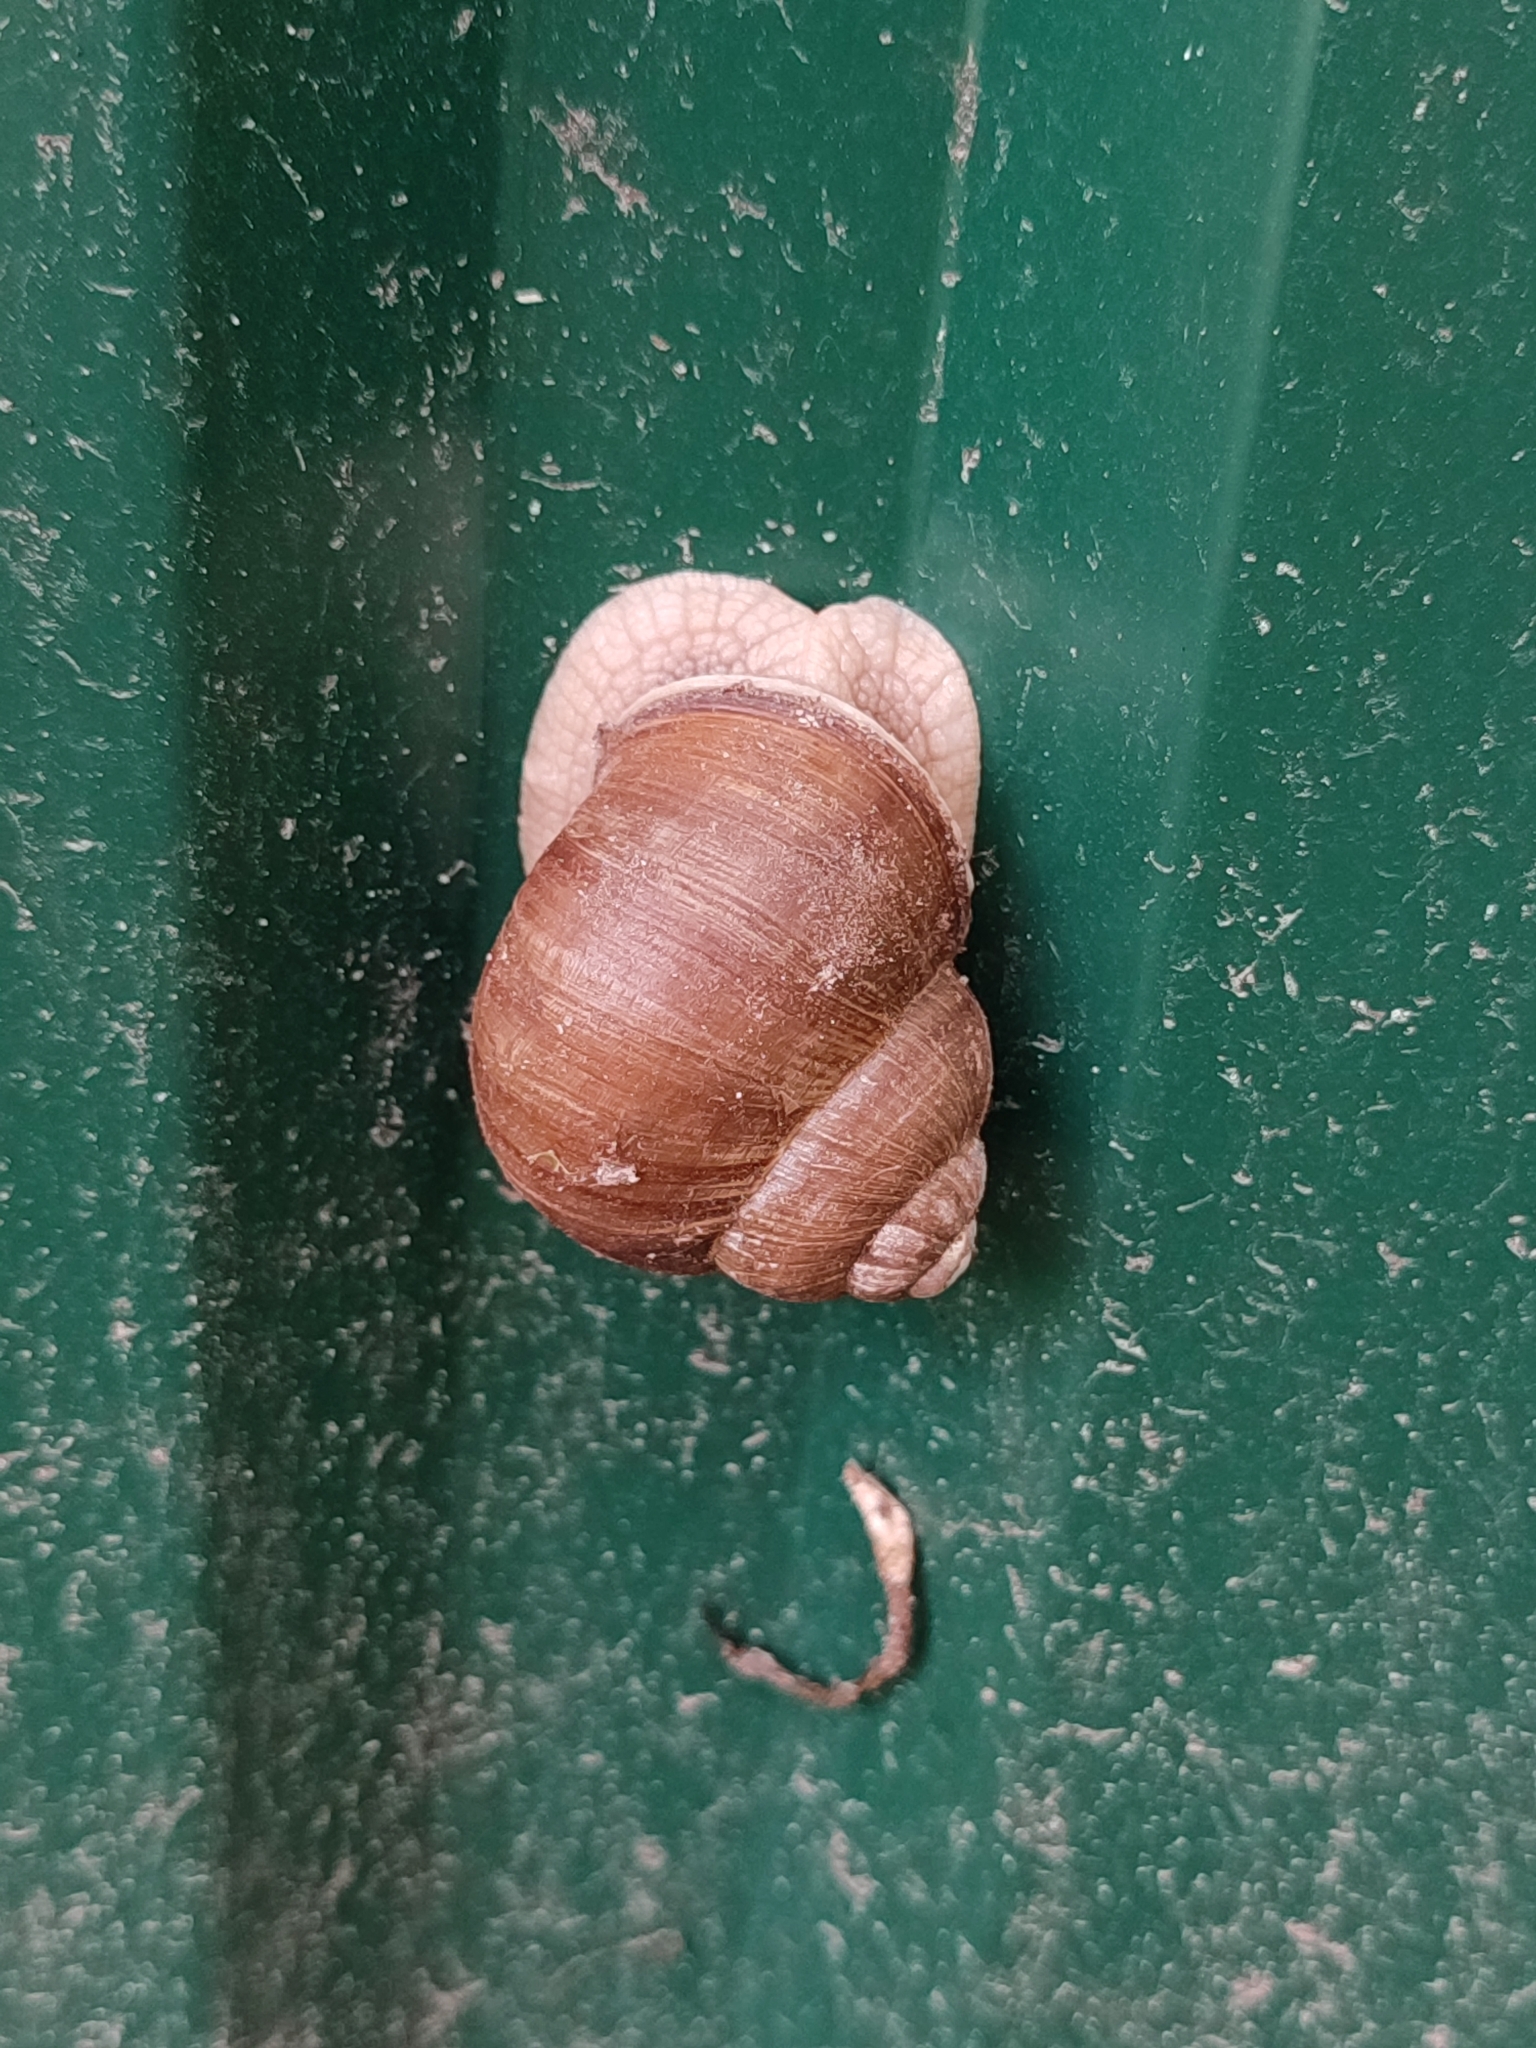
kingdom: Animalia
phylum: Mollusca
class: Gastropoda
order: Stylommatophora
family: Helicidae
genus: Helix
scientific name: Helix pomatia
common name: Roman snail
